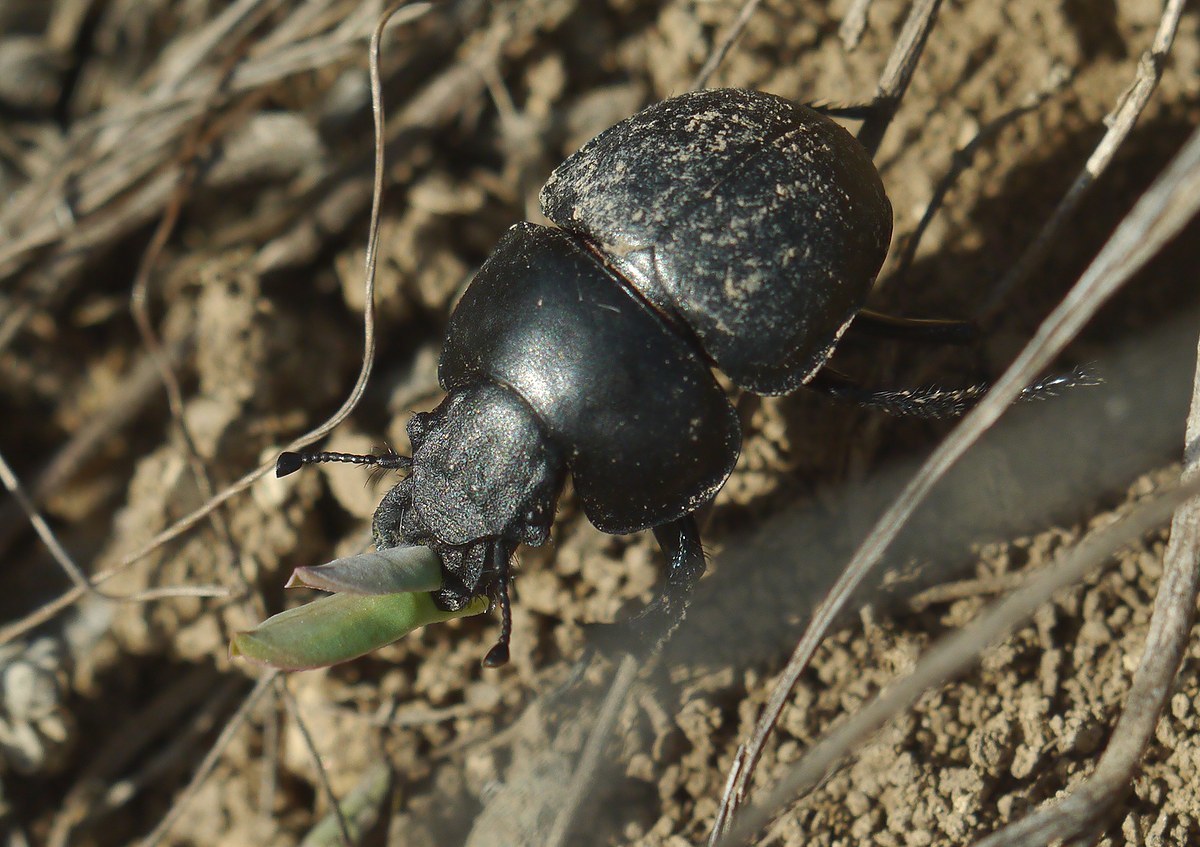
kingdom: Animalia
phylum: Arthropoda
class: Insecta
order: Coleoptera
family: Geotrupidae
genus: Lethrus
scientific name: Lethrus apterus
